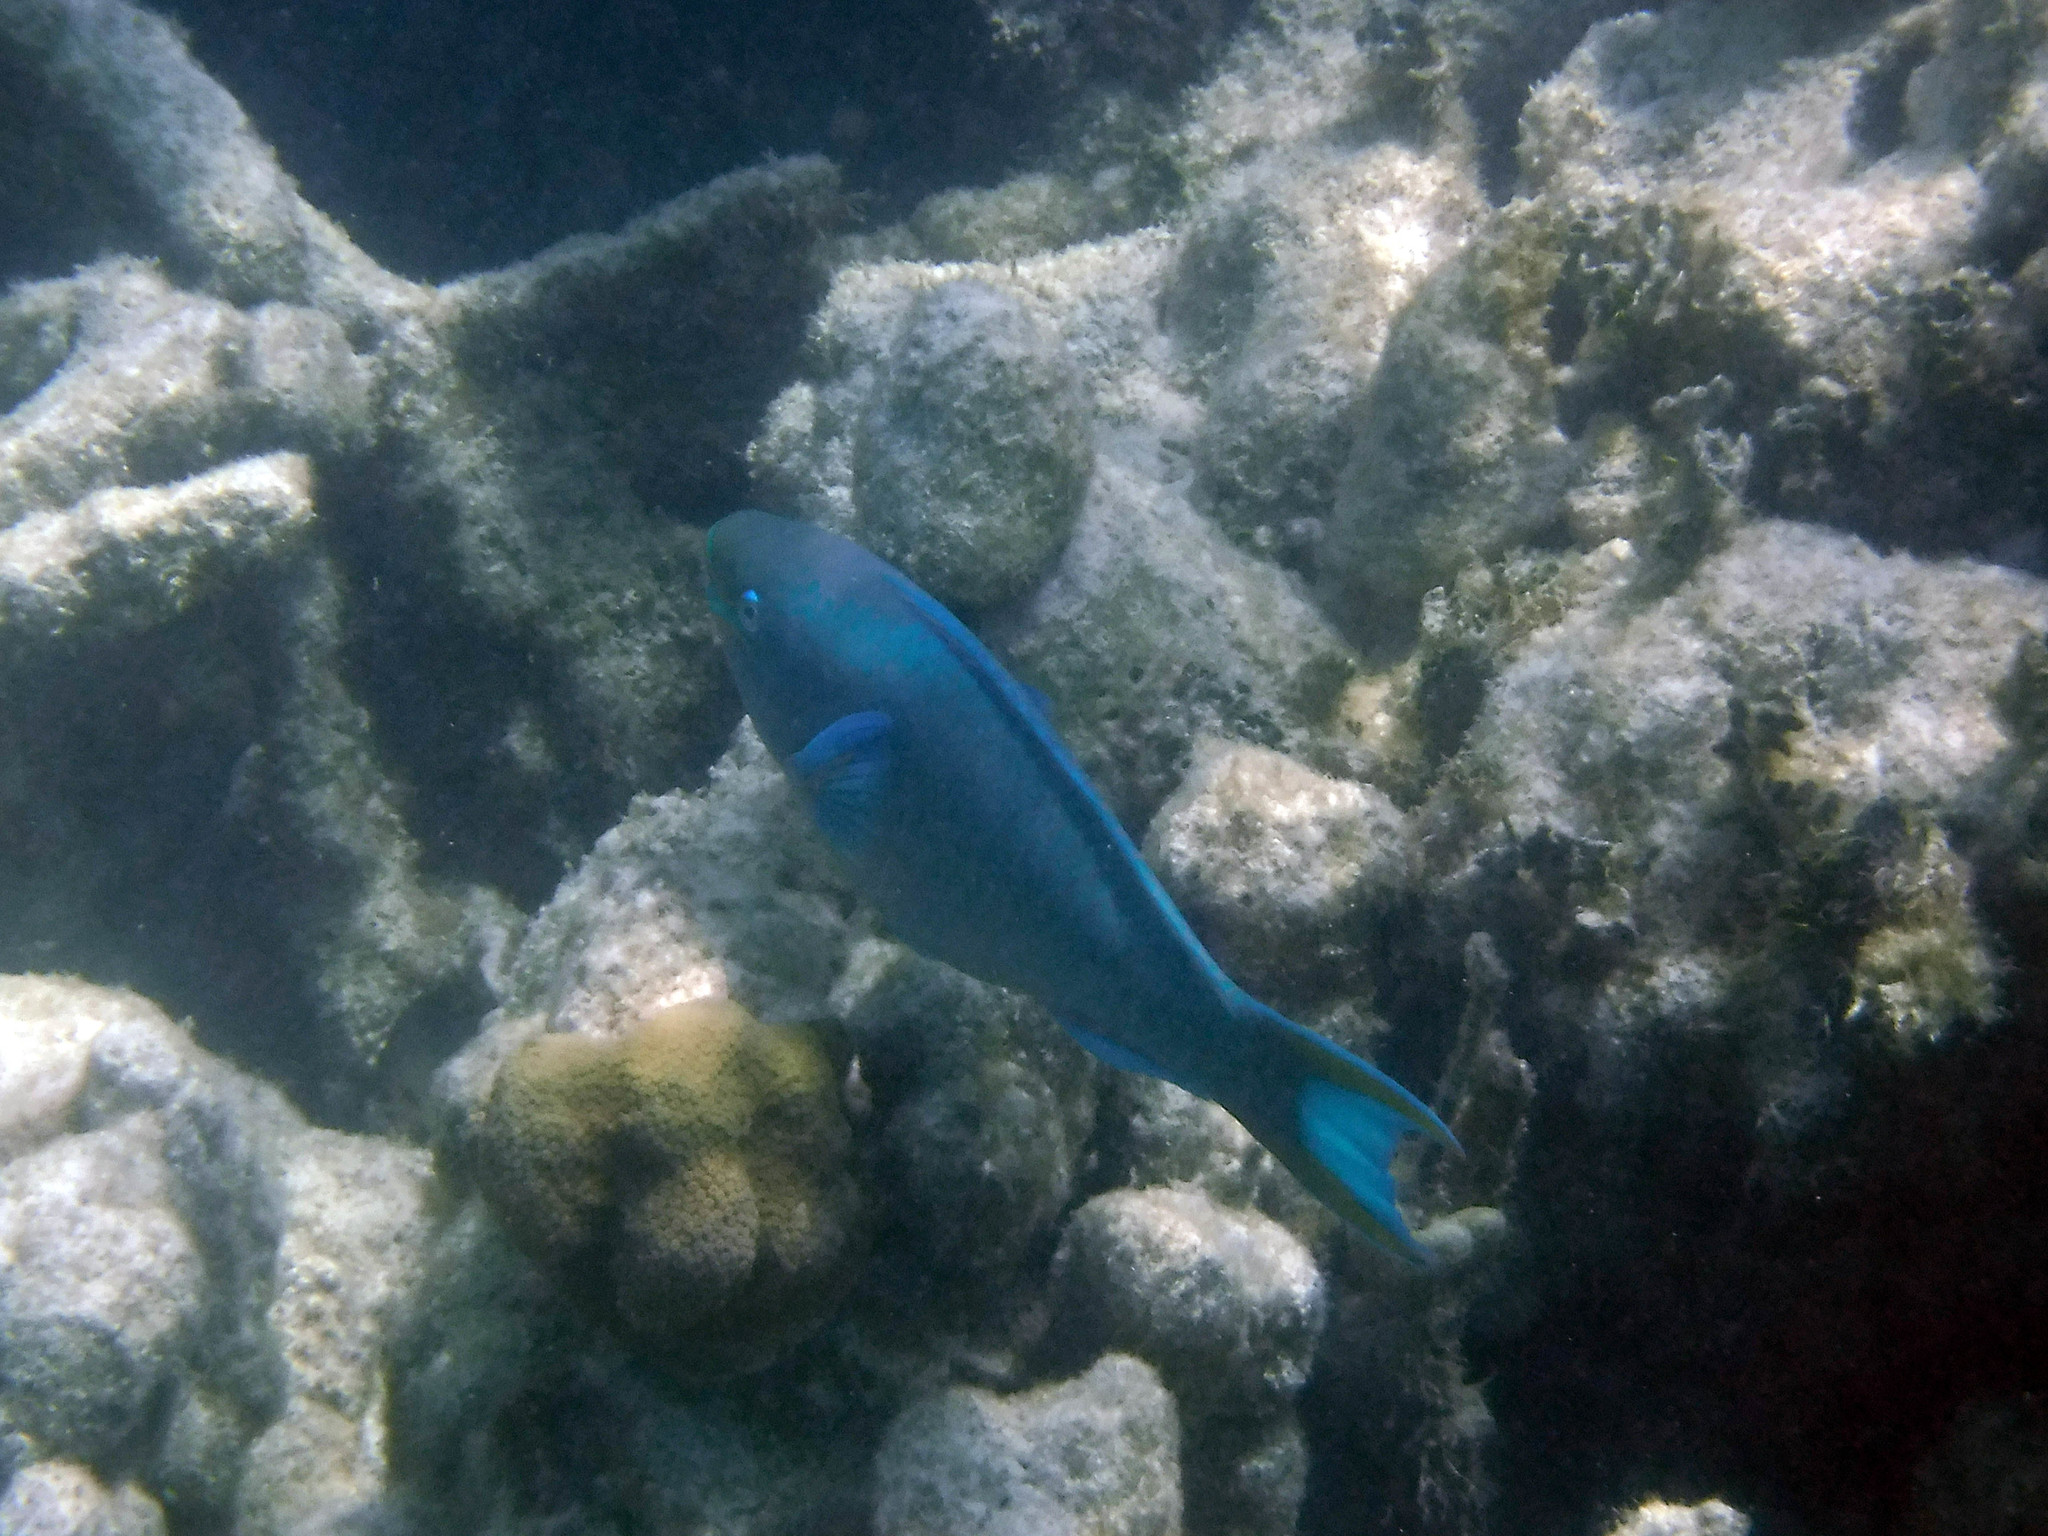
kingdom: Animalia
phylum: Chordata
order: Perciformes
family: Scaridae
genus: Scarus
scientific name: Scarus vetula
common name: Queen parrotfish
